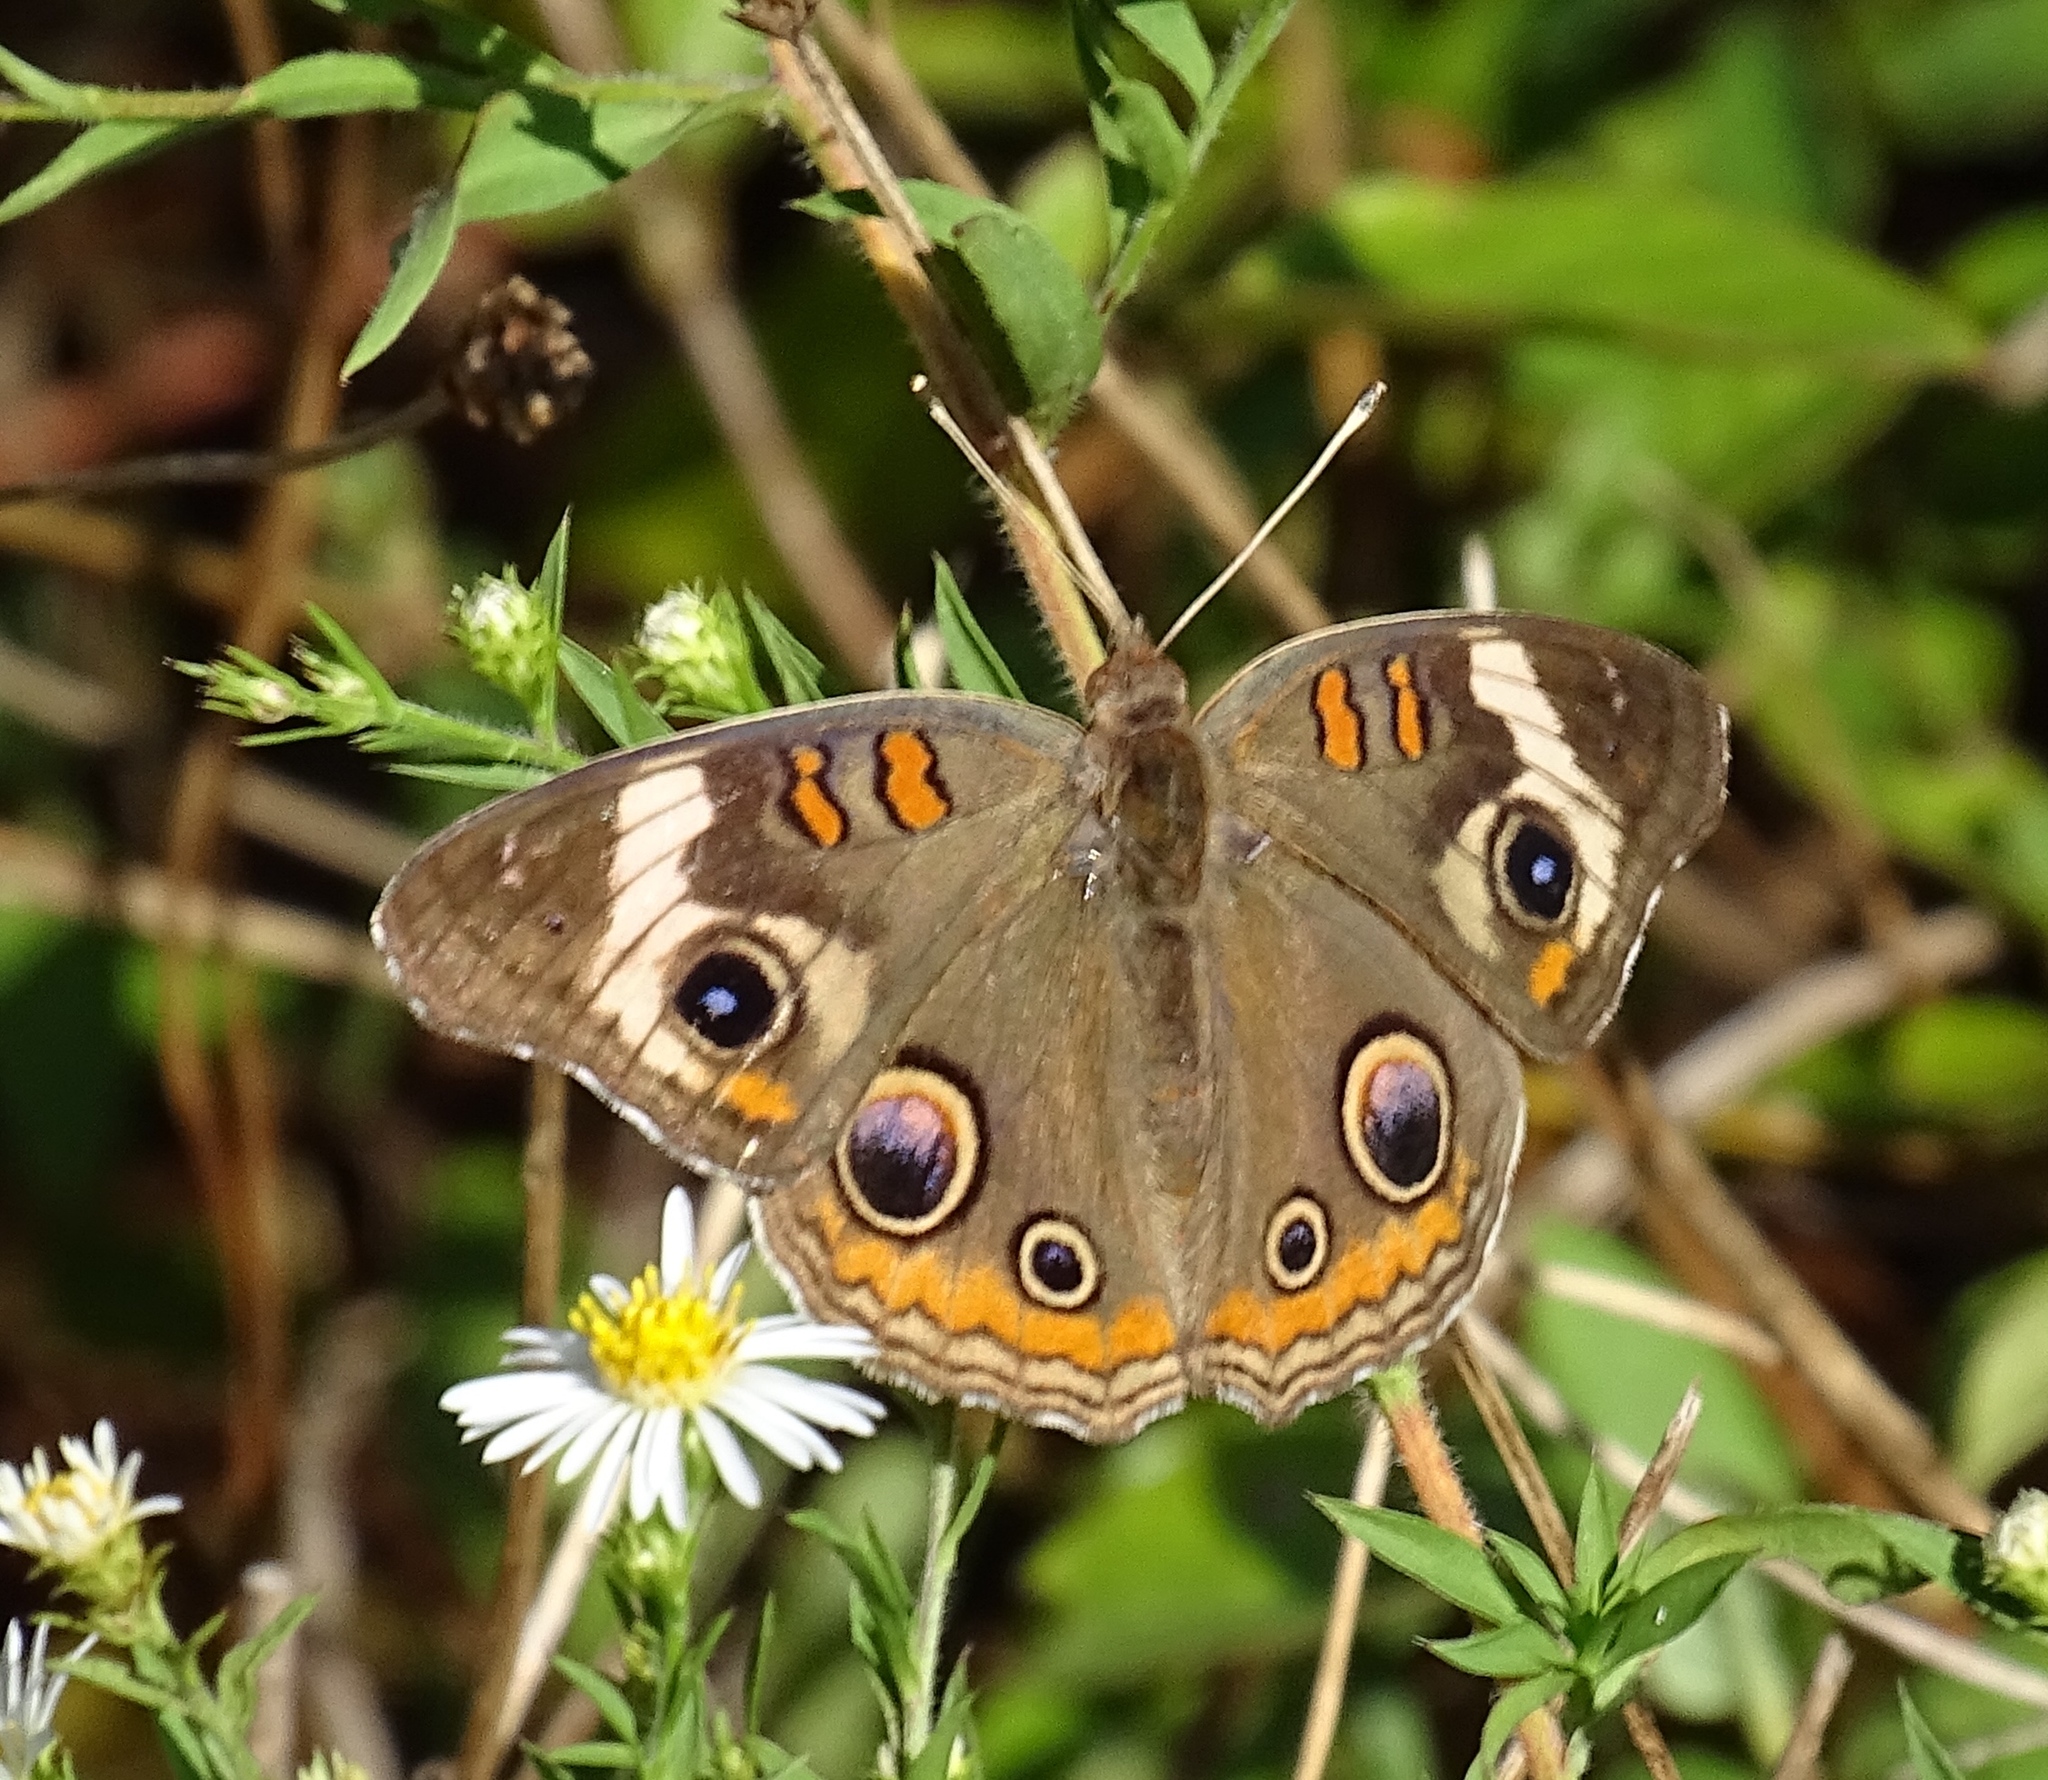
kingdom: Animalia
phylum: Arthropoda
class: Insecta
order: Lepidoptera
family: Nymphalidae
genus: Junonia
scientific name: Junonia coenia
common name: Common buckeye
